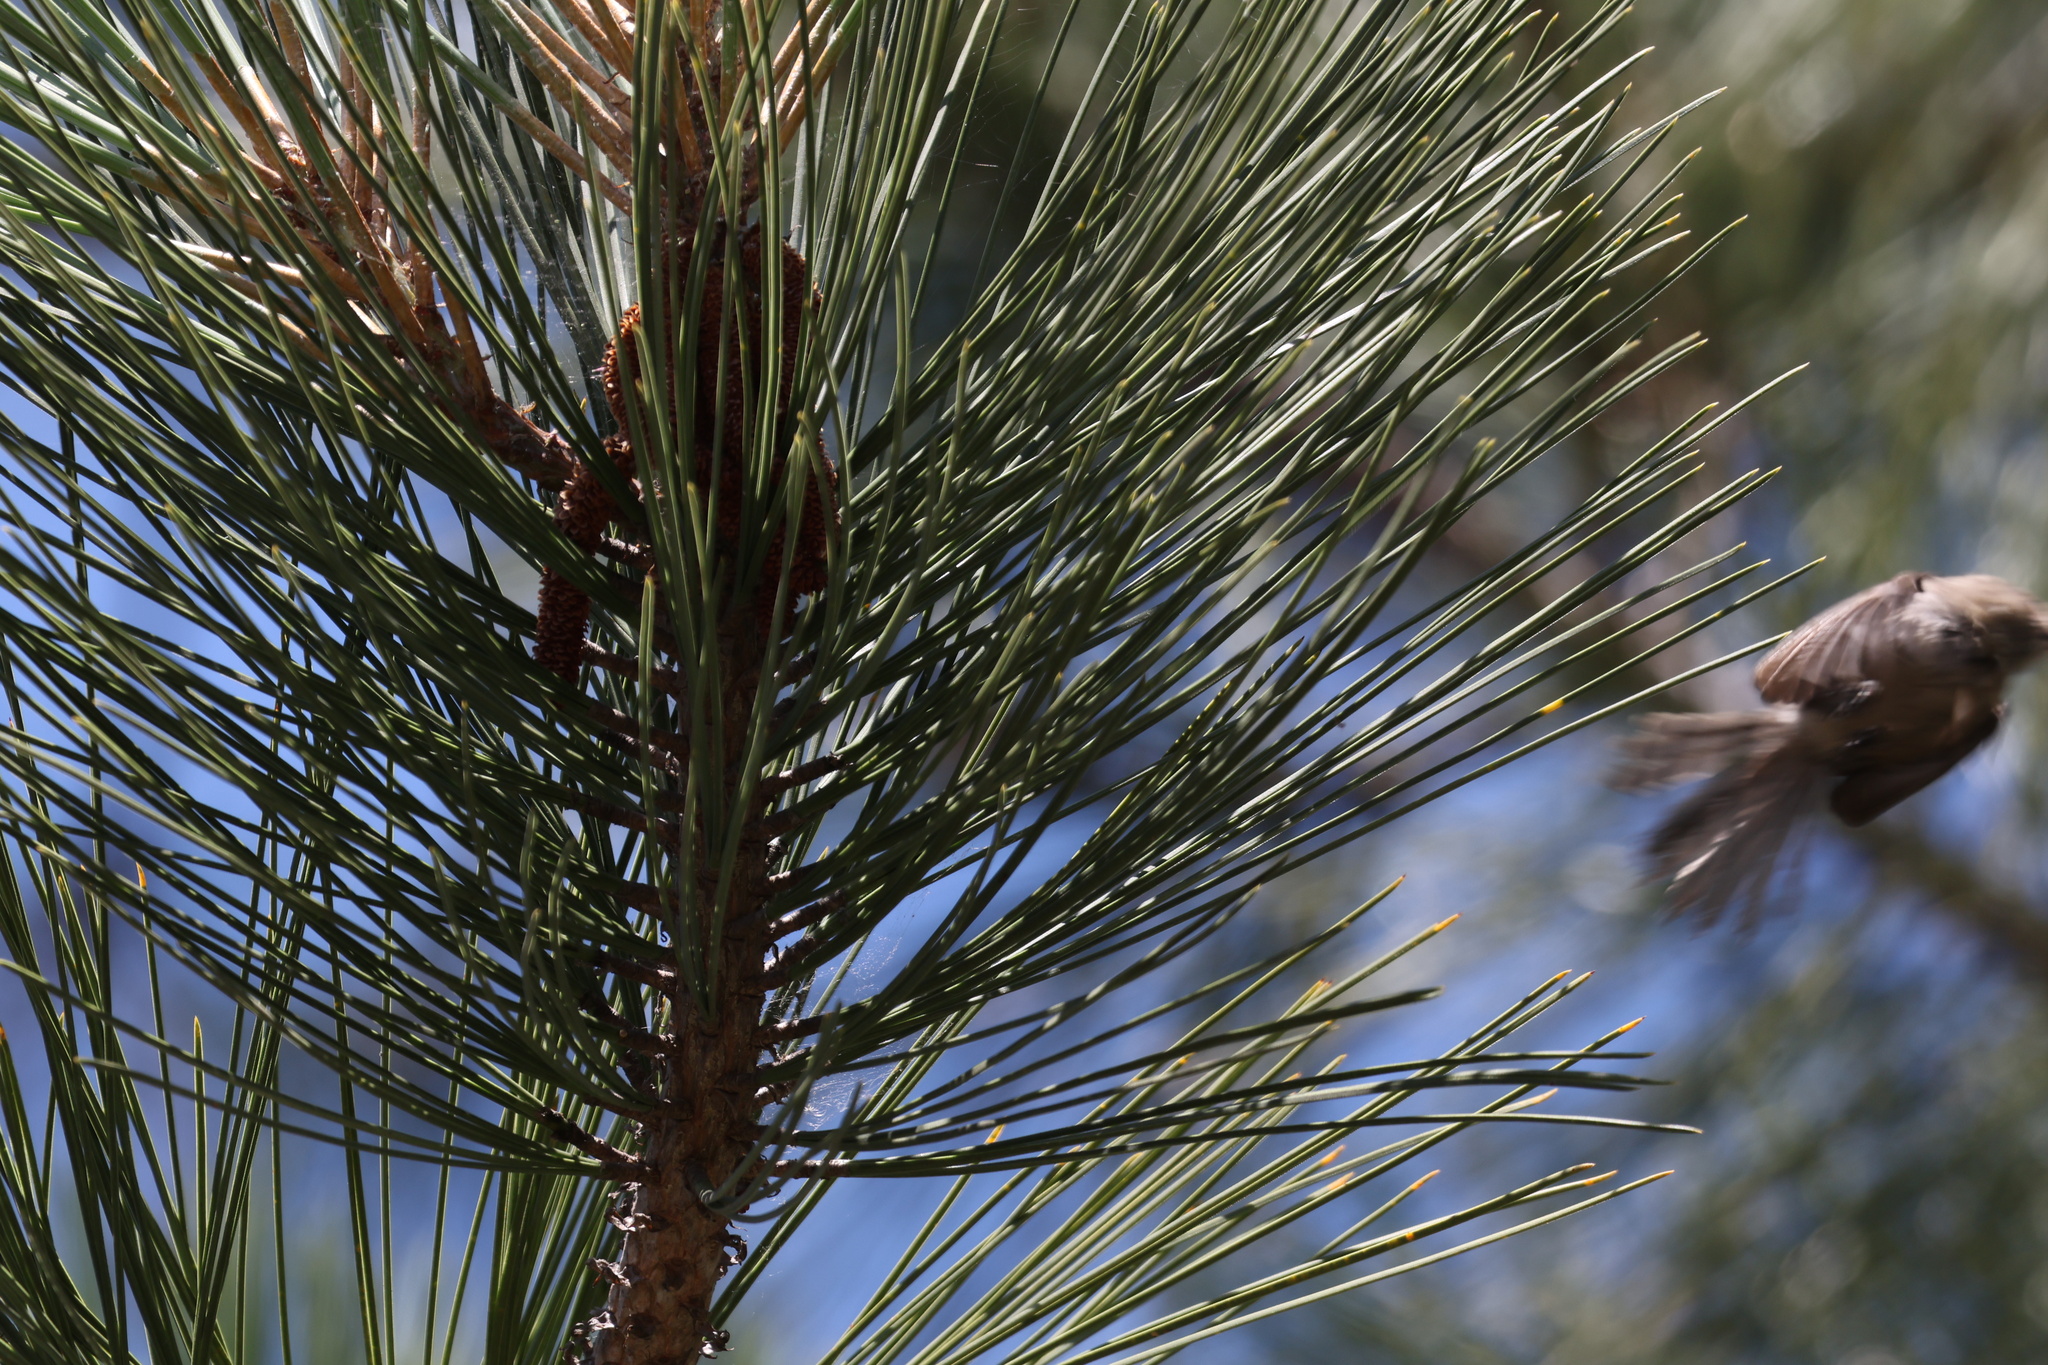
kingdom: Animalia
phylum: Chordata
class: Aves
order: Passeriformes
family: Aegithalidae
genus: Psaltriparus
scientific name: Psaltriparus minimus
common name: American bushtit
